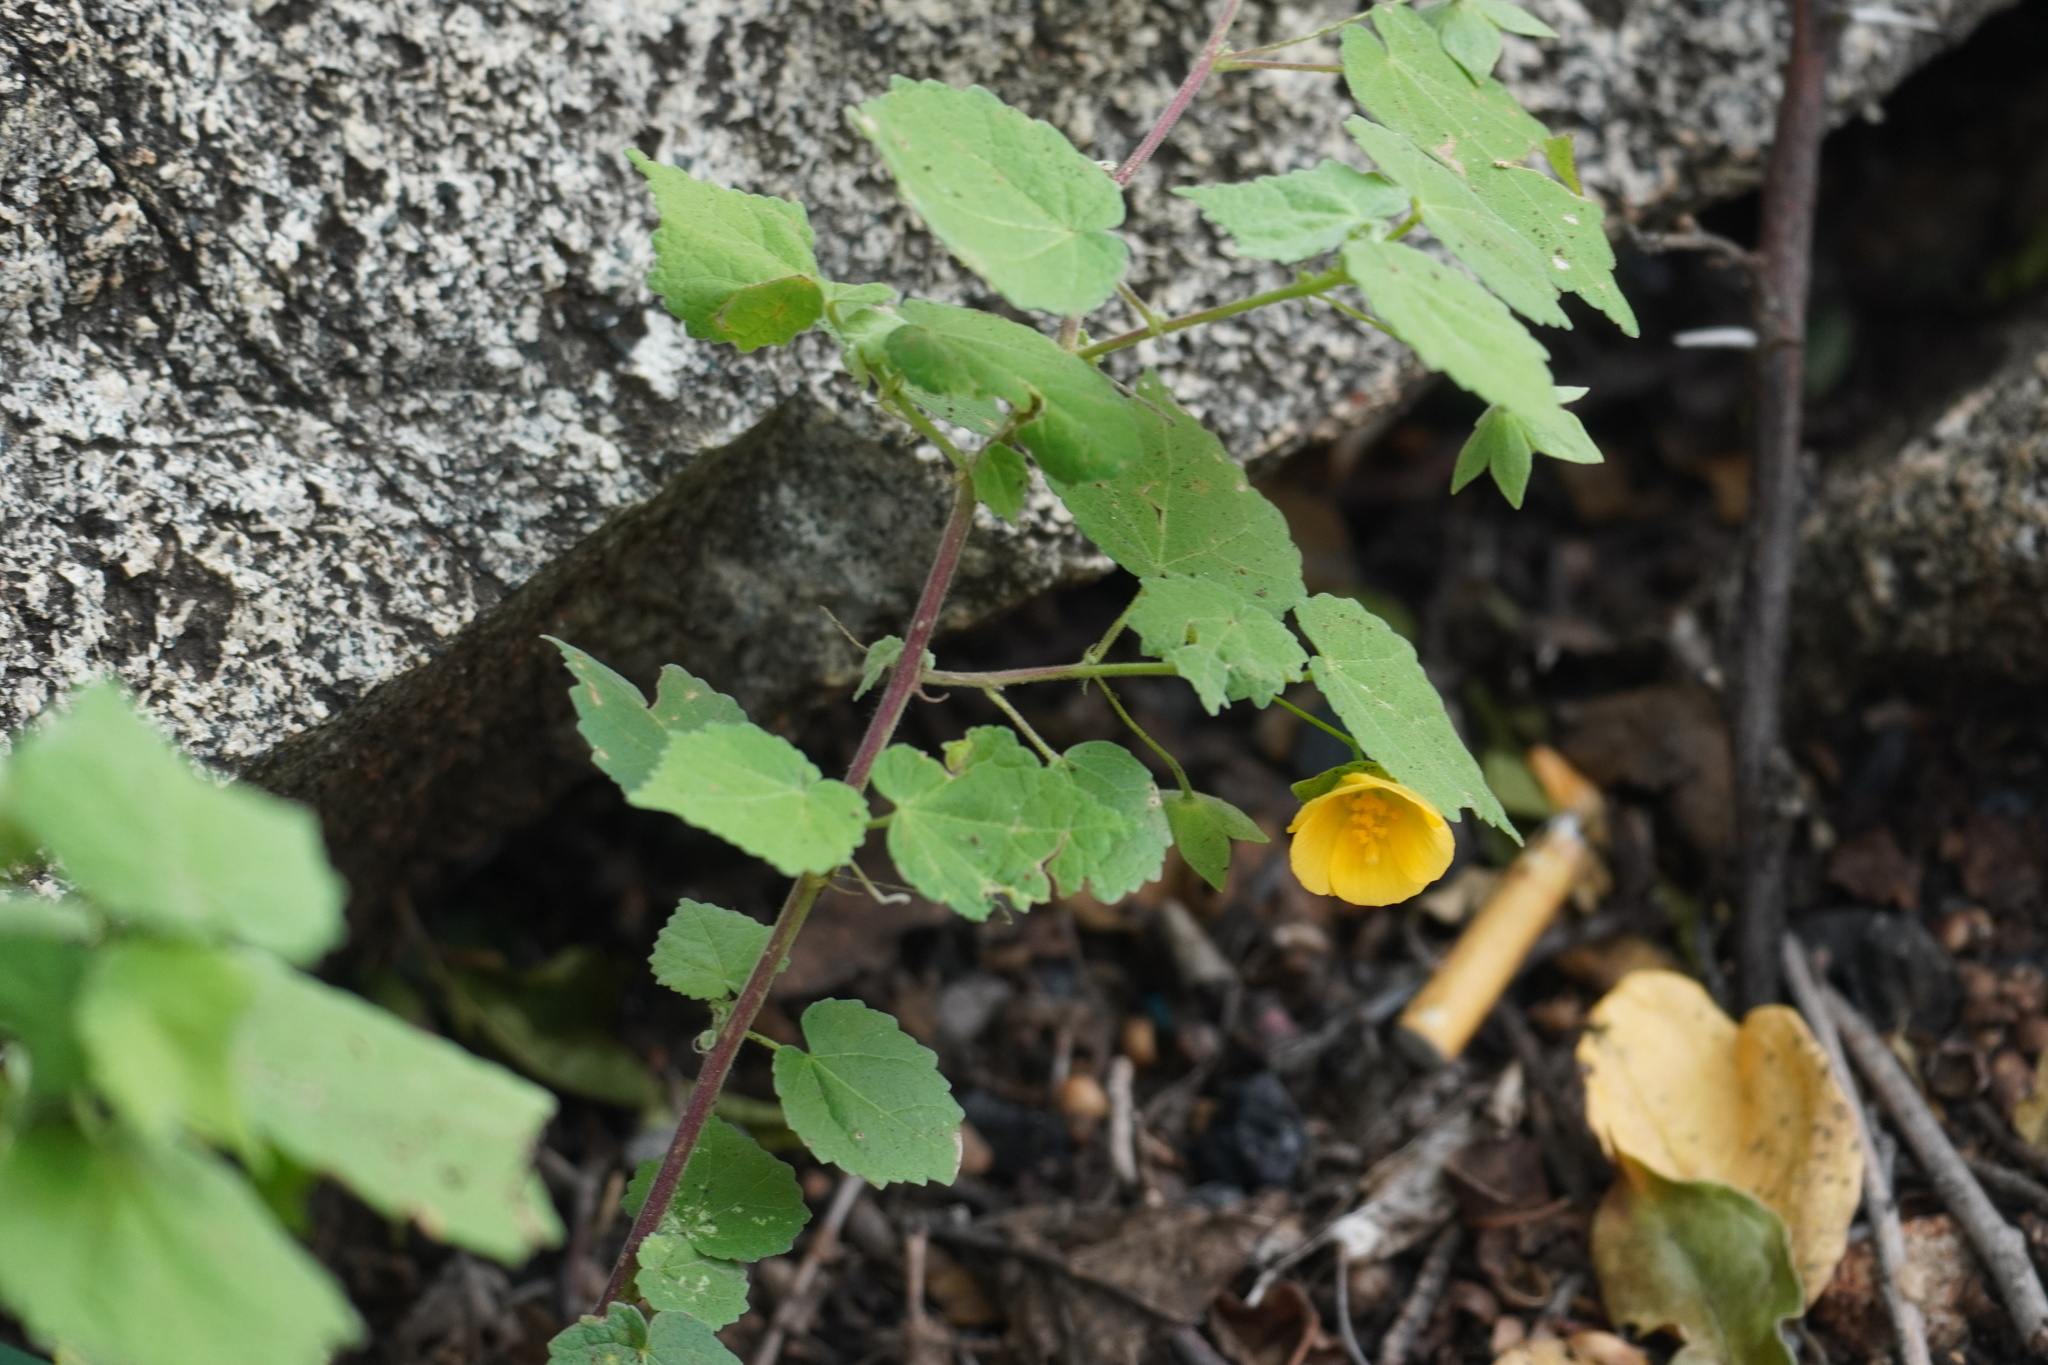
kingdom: Plantae
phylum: Tracheophyta
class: Magnoliopsida
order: Malvales
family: Malvaceae
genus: Pavonia
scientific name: Pavonia burchellii
